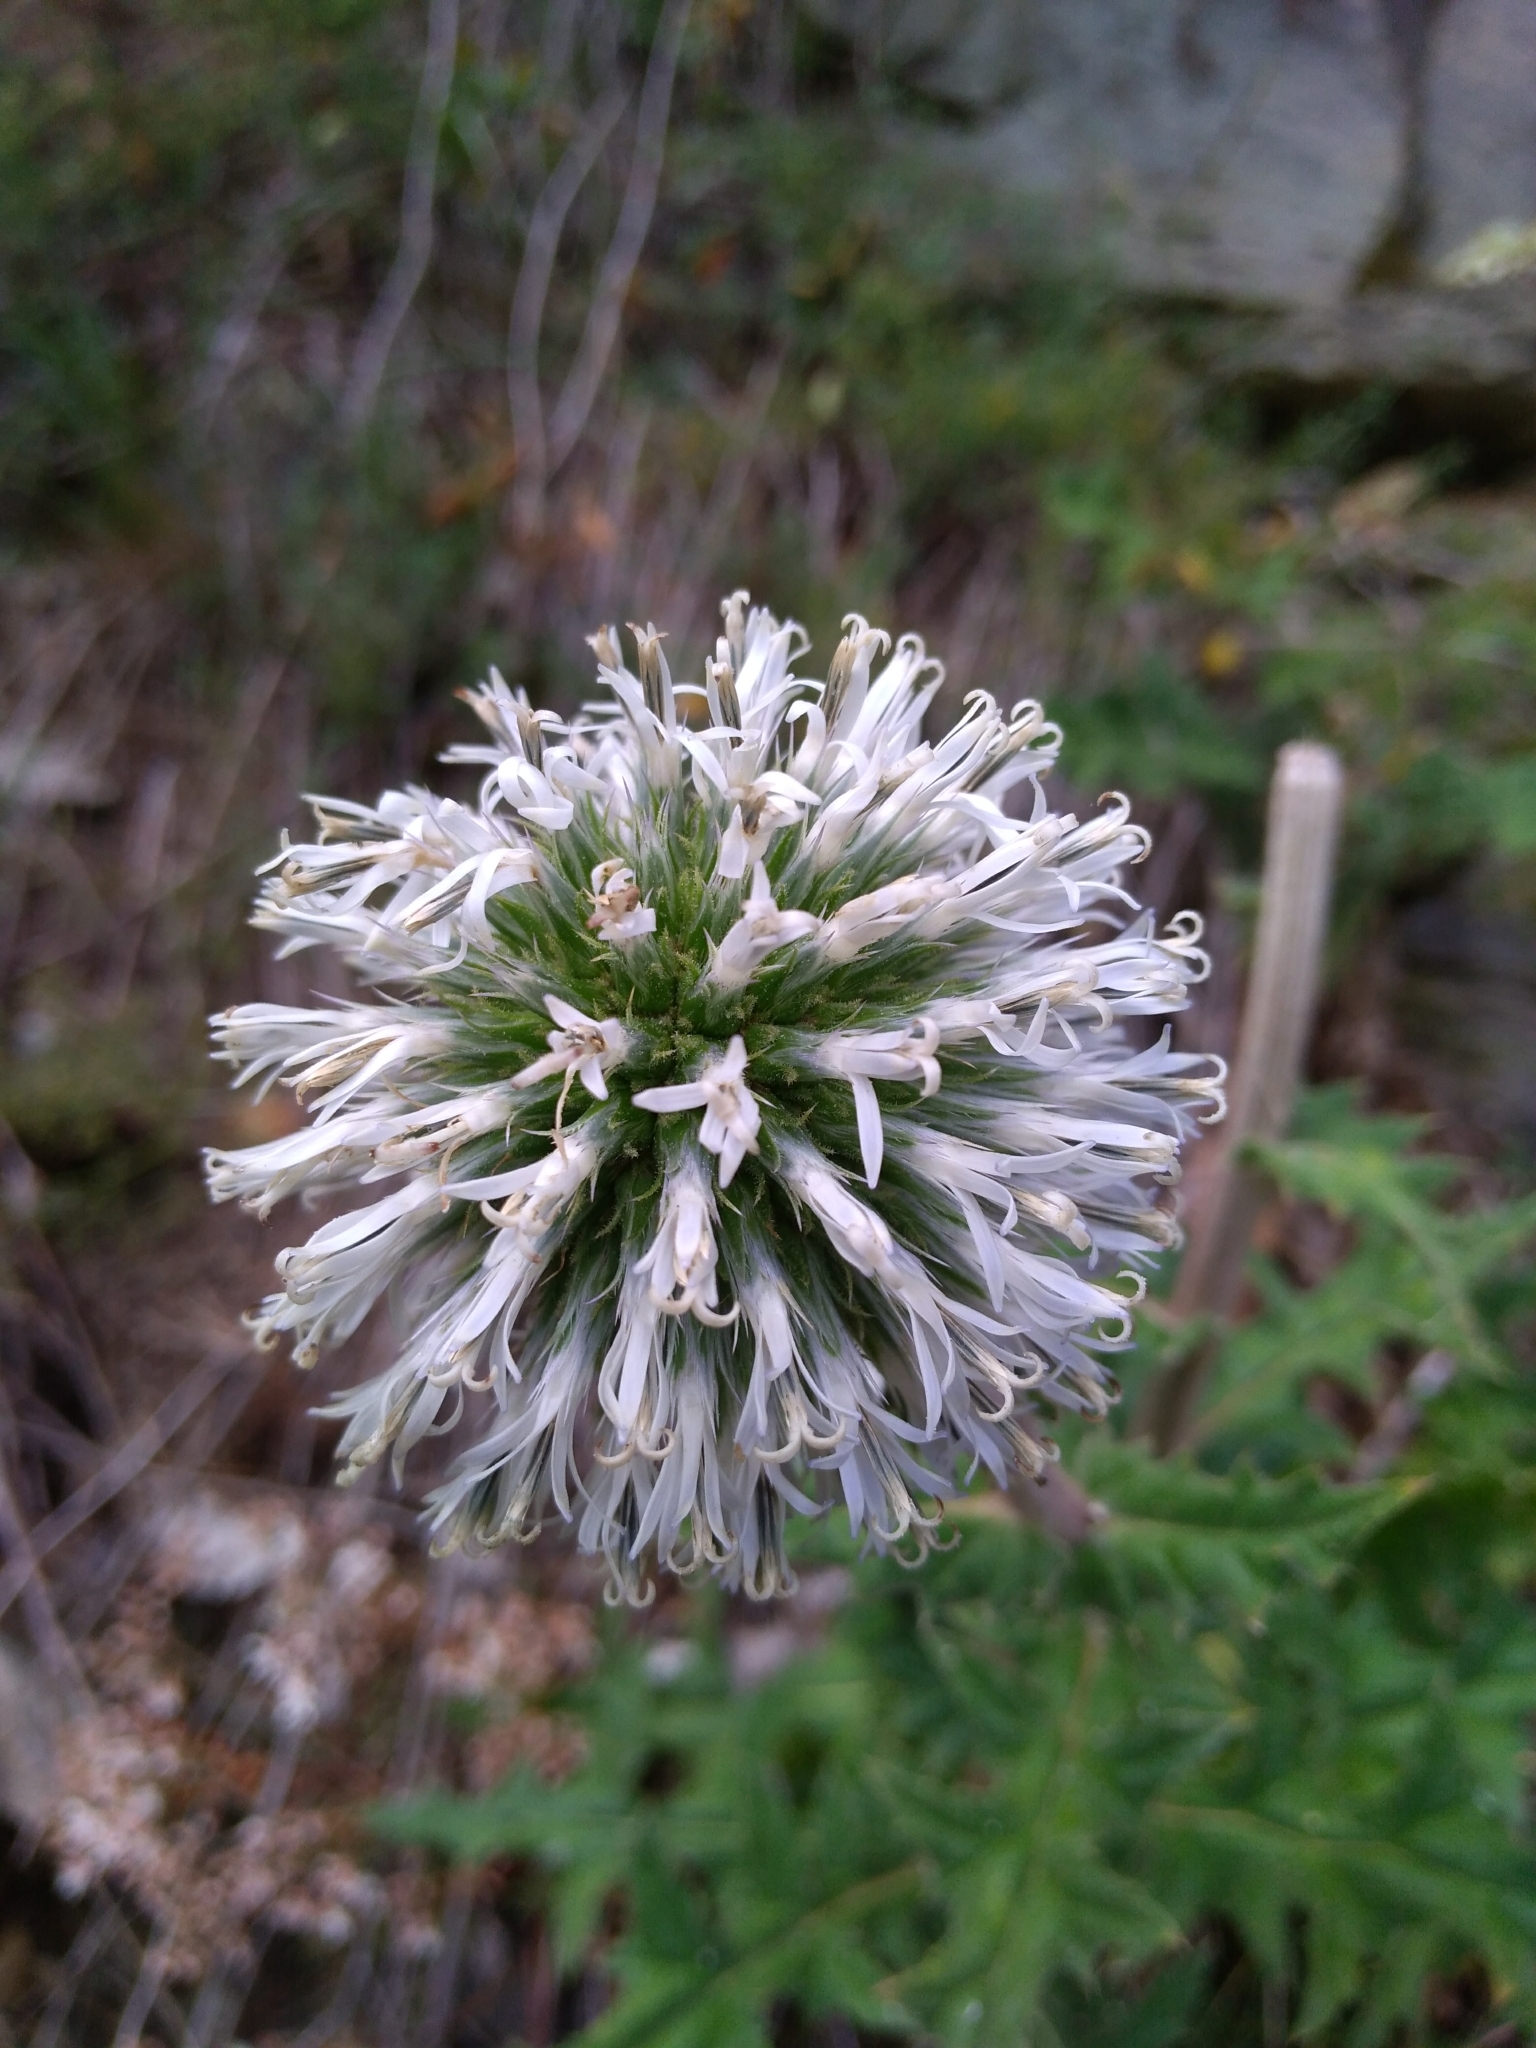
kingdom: Plantae
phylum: Tracheophyta
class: Magnoliopsida
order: Asterales
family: Asteraceae
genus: Echinops
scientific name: Echinops sphaerocephalus
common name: Glandular globe-thistle
